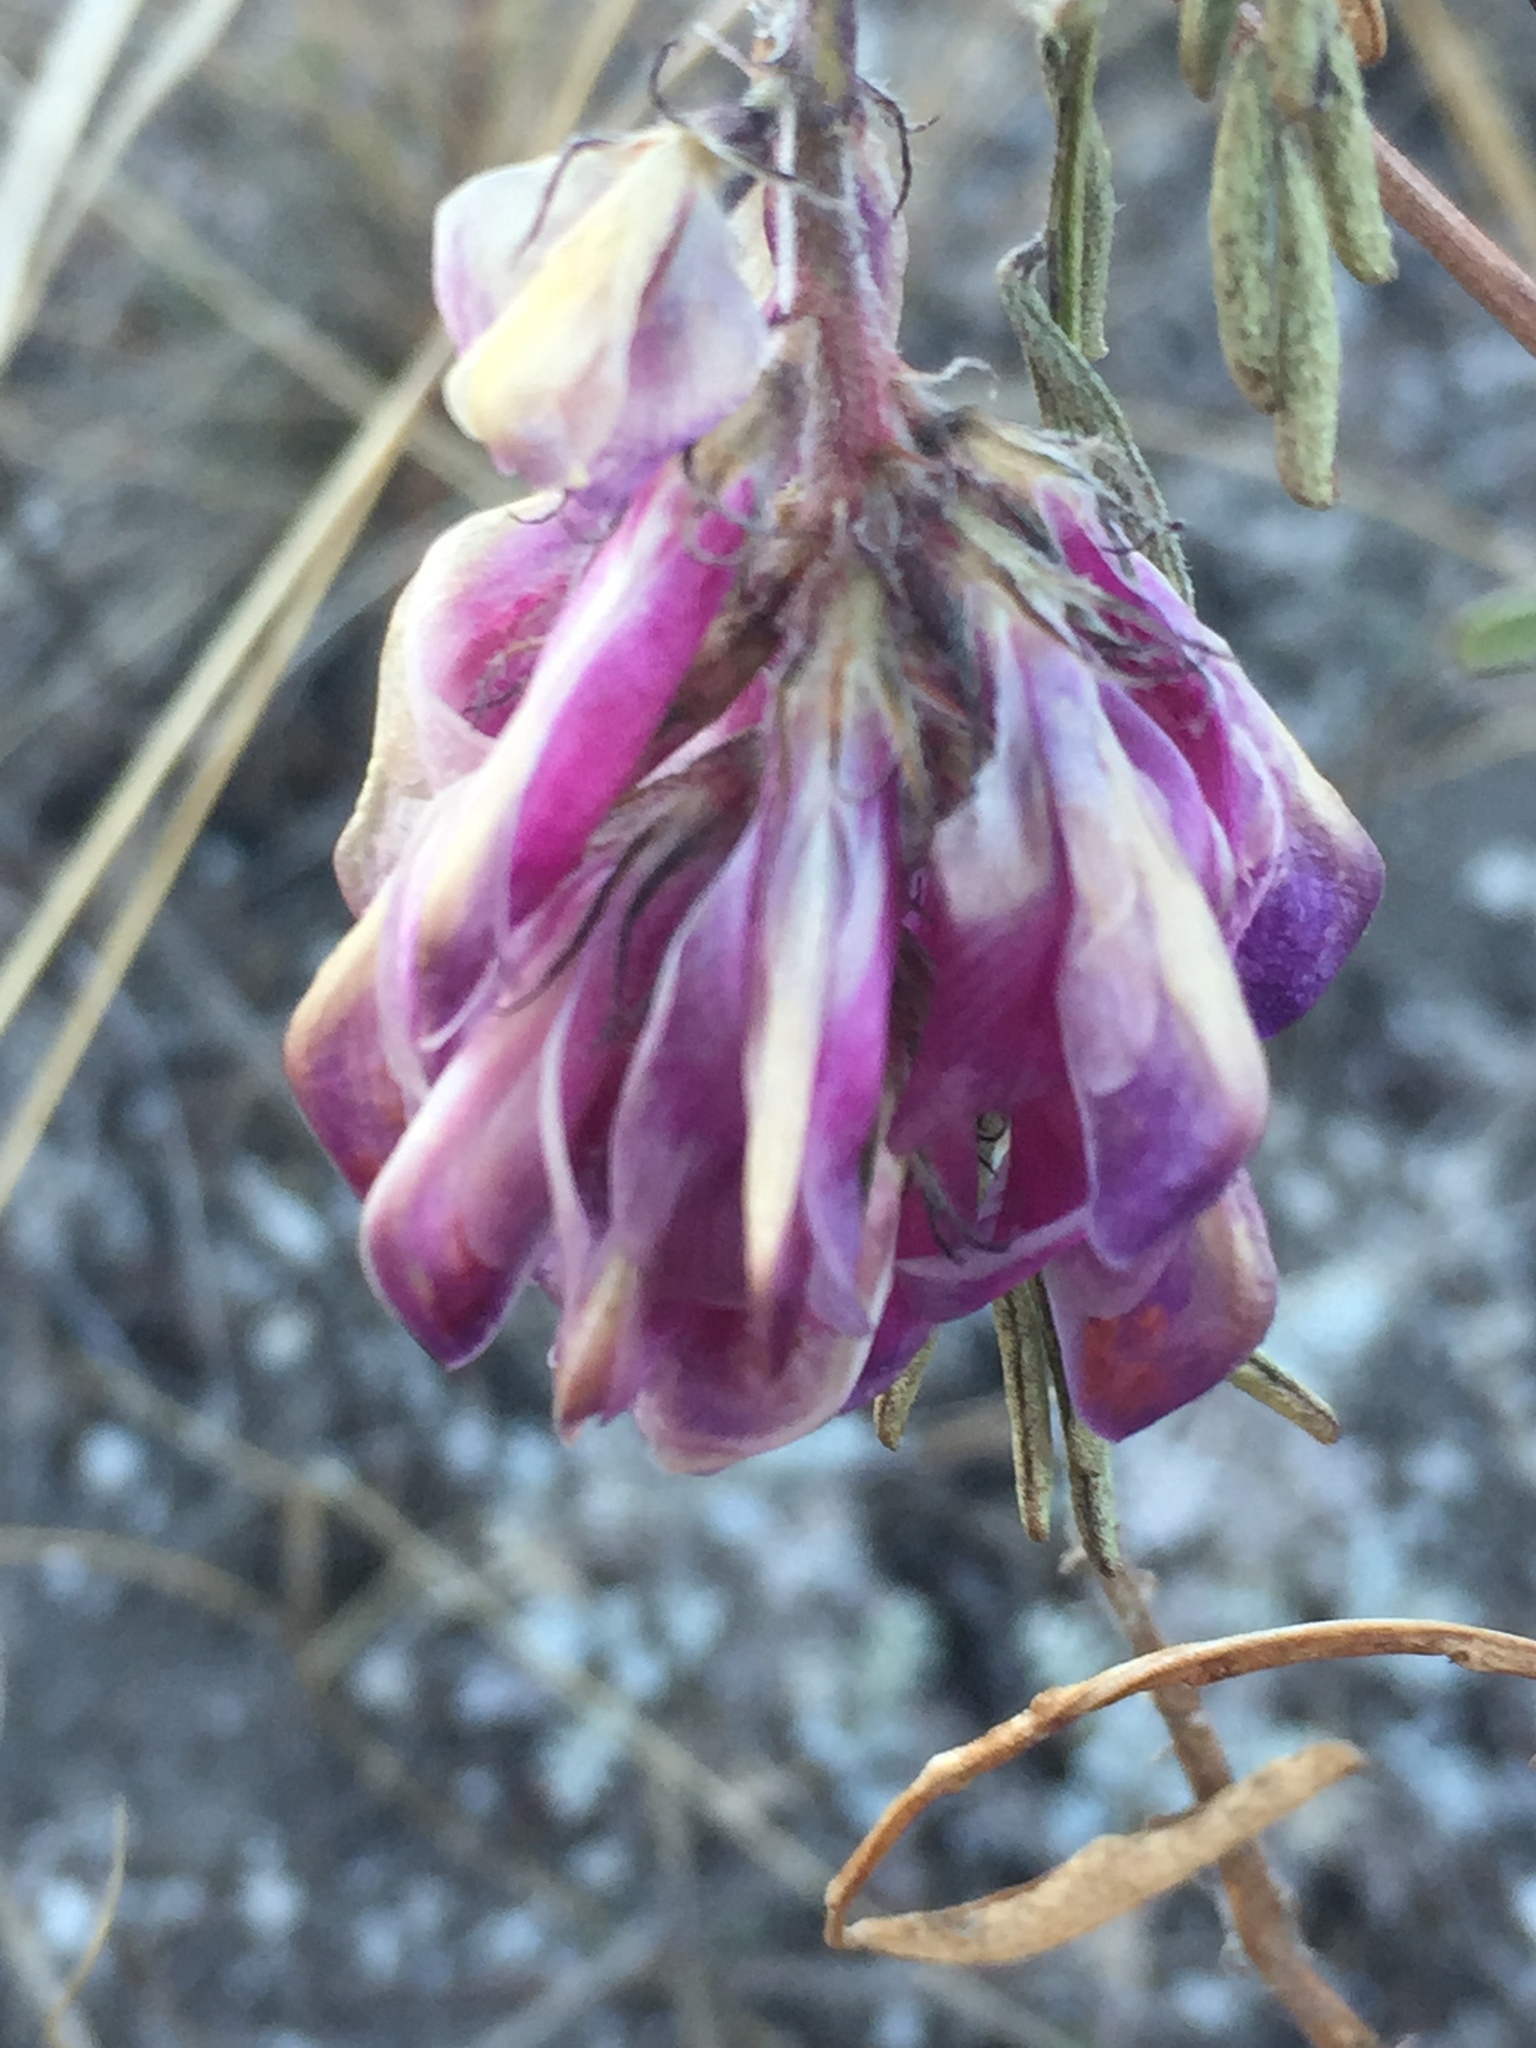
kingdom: Plantae
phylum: Tracheophyta
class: Magnoliopsida
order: Fabales
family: Fabaceae
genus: Hedysarum
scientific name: Hedysarum ucrainicum
